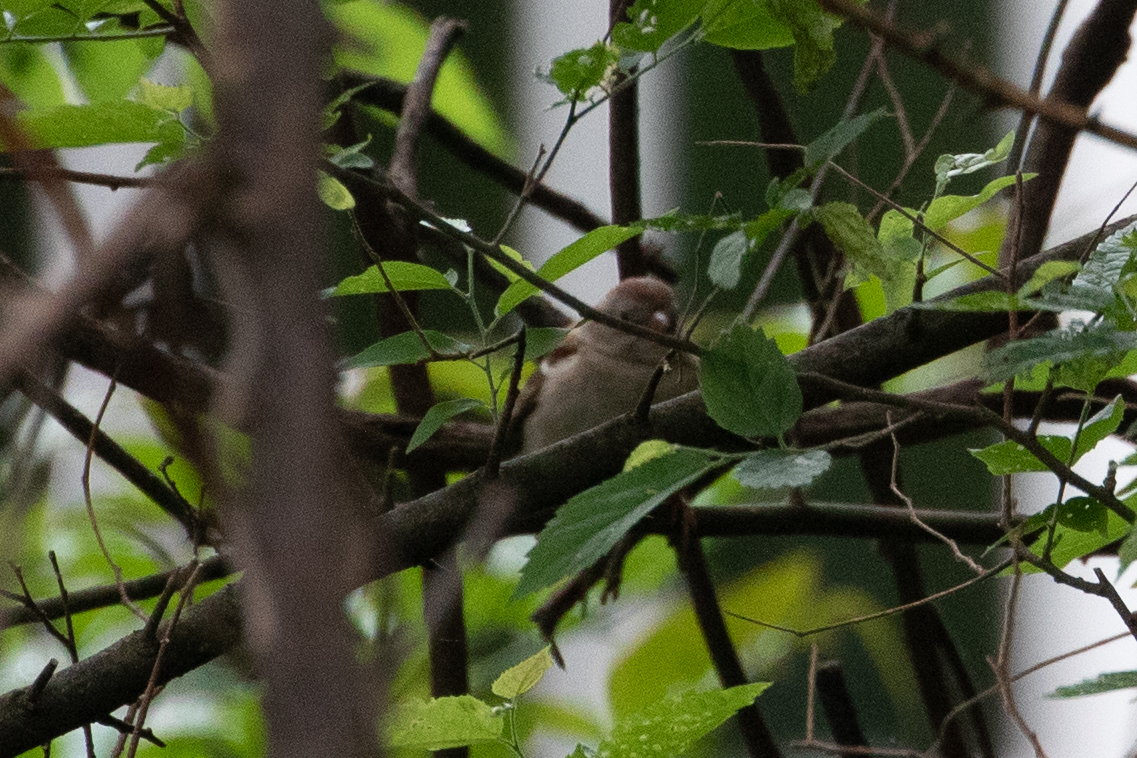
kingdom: Animalia
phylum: Chordata
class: Aves
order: Passeriformes
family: Passerellidae
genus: Spizella
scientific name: Spizella pusilla
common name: Field sparrow
